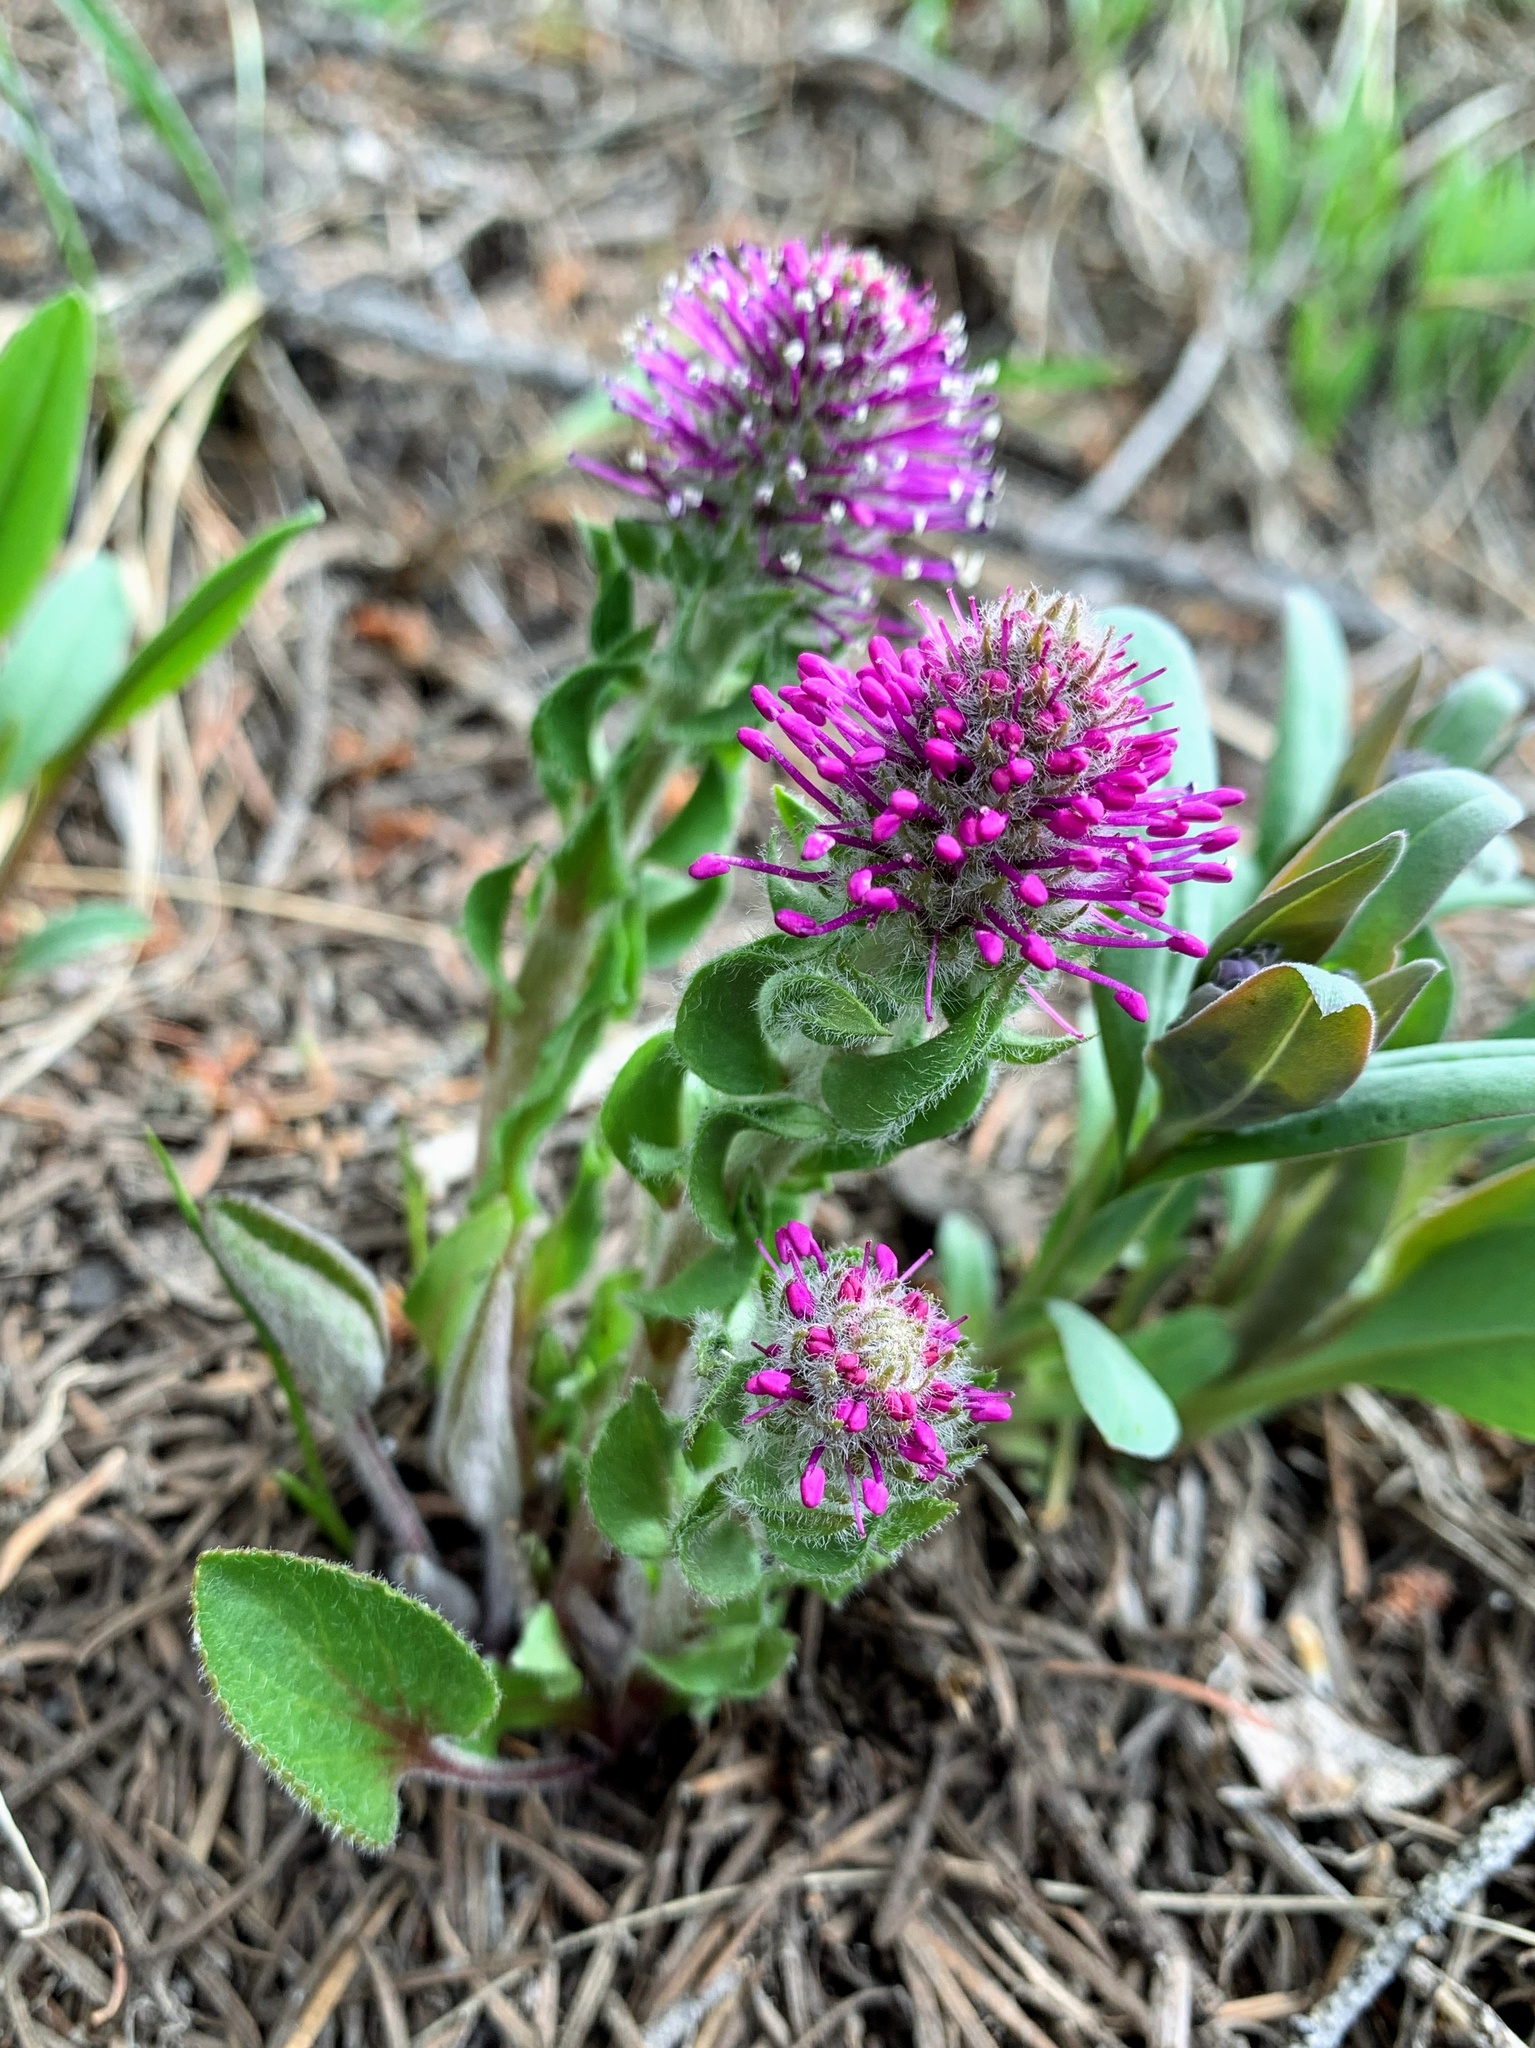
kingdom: Plantae
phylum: Tracheophyta
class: Magnoliopsida
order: Lamiales
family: Plantaginaceae
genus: Synthyris
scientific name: Synthyris wyomingensis
